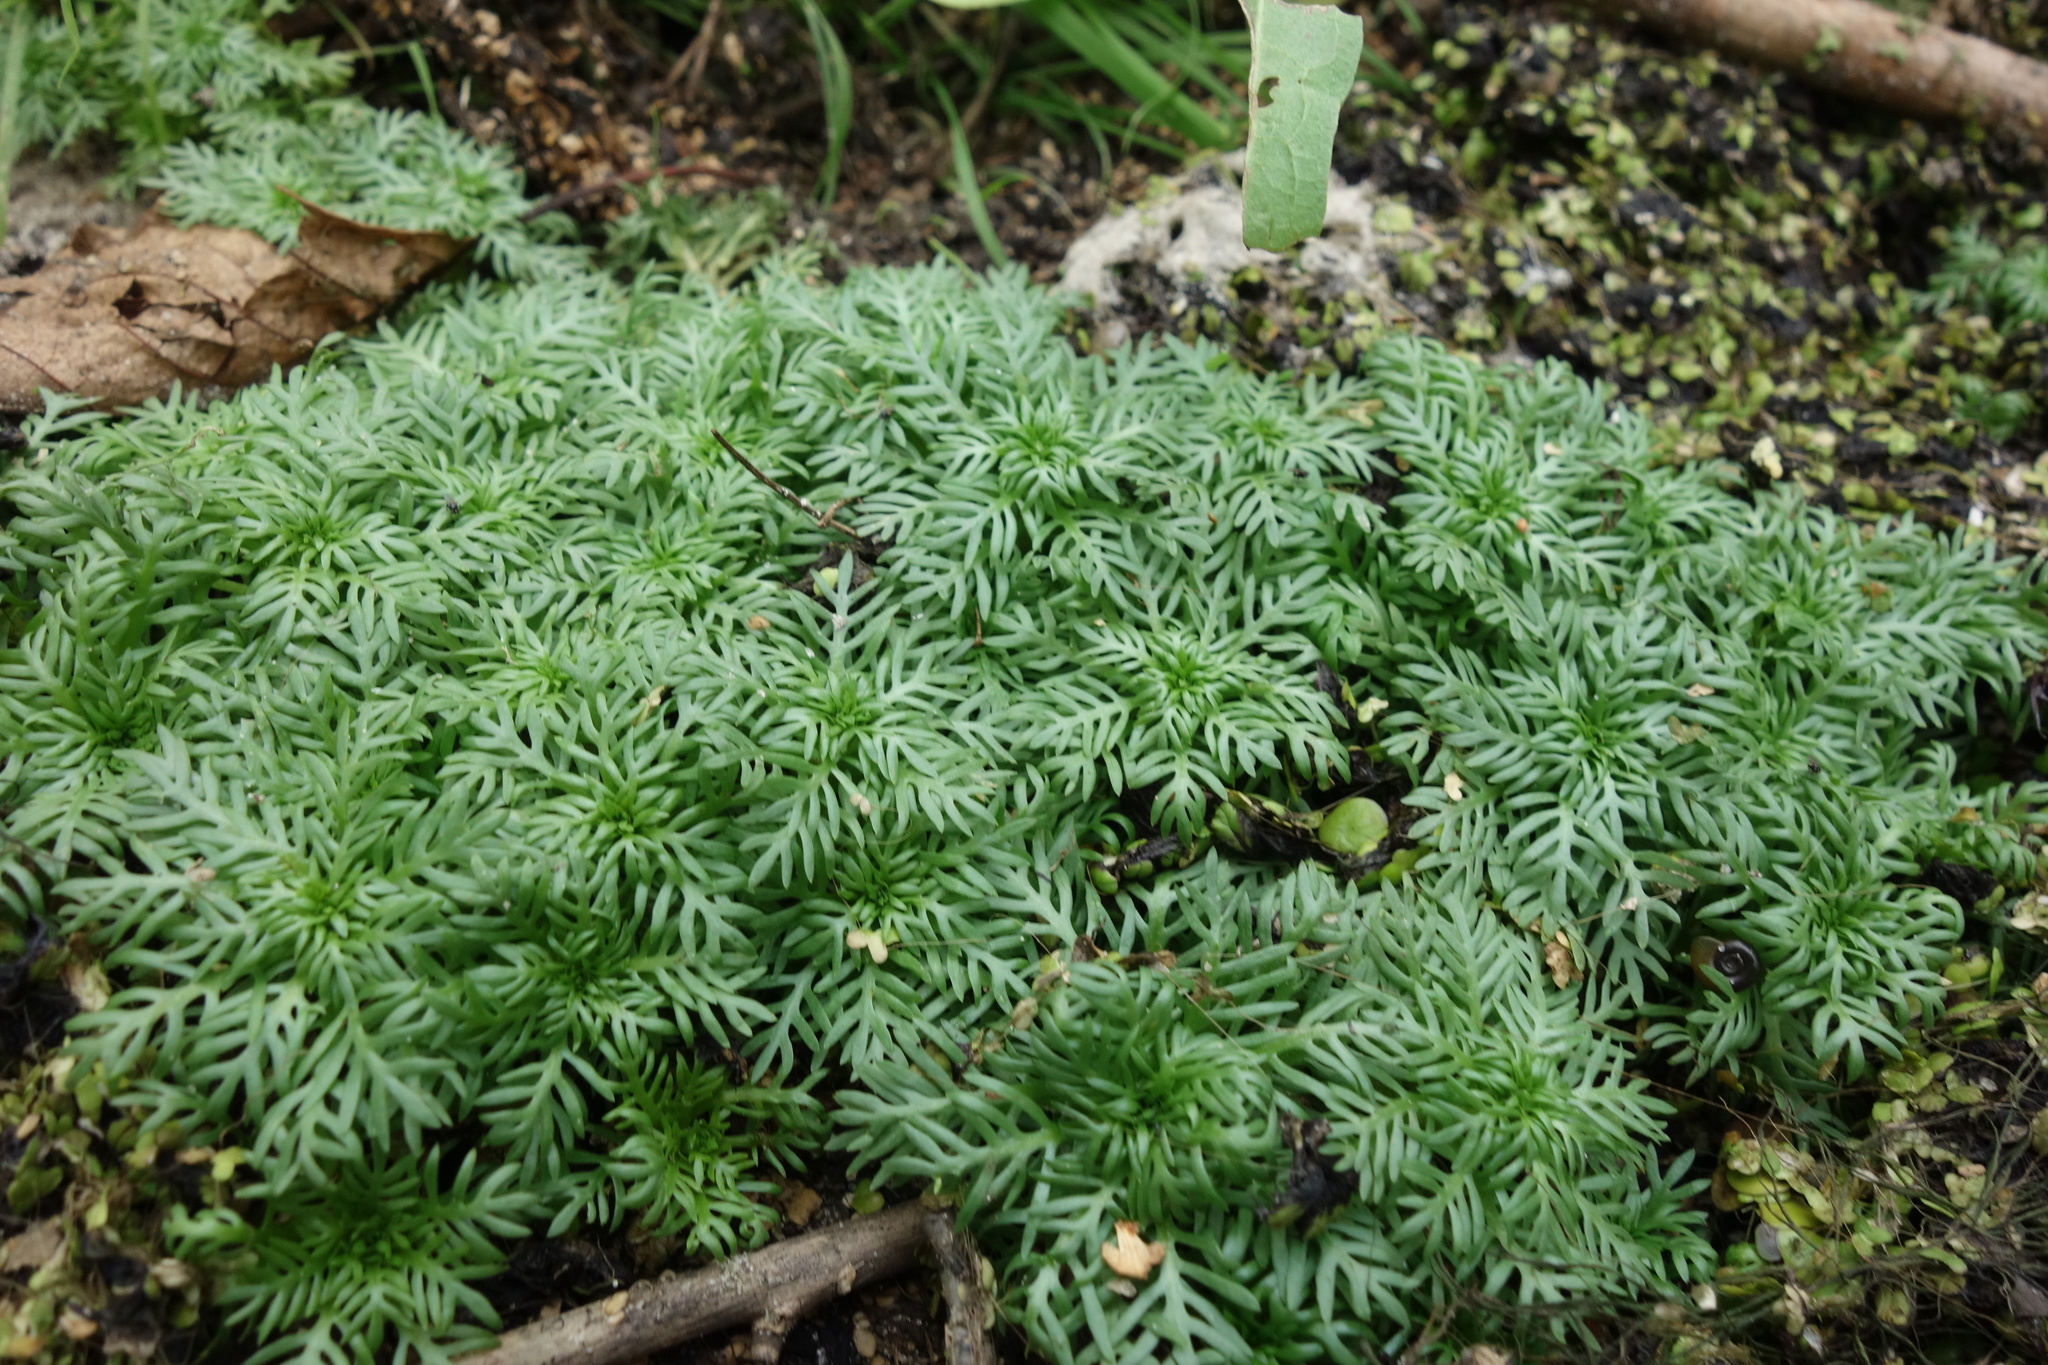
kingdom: Plantae
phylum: Tracheophyta
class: Magnoliopsida
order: Ericales
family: Primulaceae
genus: Hottonia
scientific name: Hottonia palustris
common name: Water-violet
